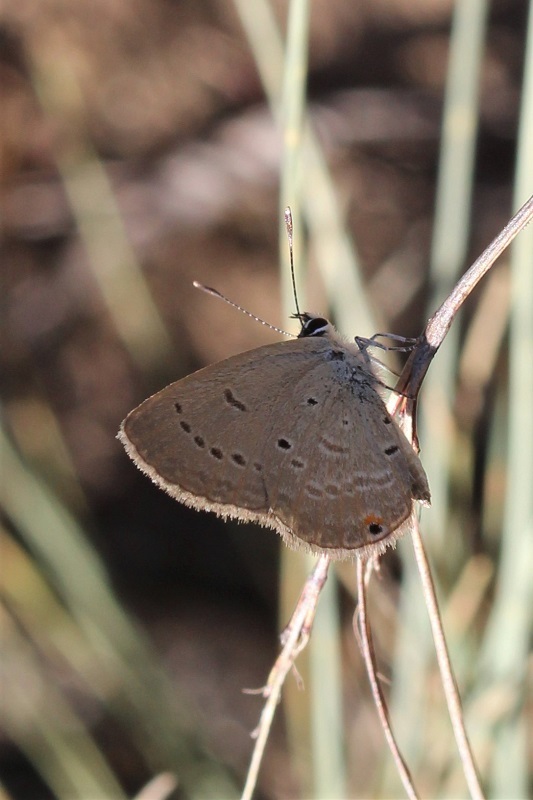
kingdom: Animalia
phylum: Arthropoda
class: Insecta
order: Lepidoptera
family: Lycaenidae
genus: Eicochrysops
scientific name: Eicochrysops messapus
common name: Cupreous blue
